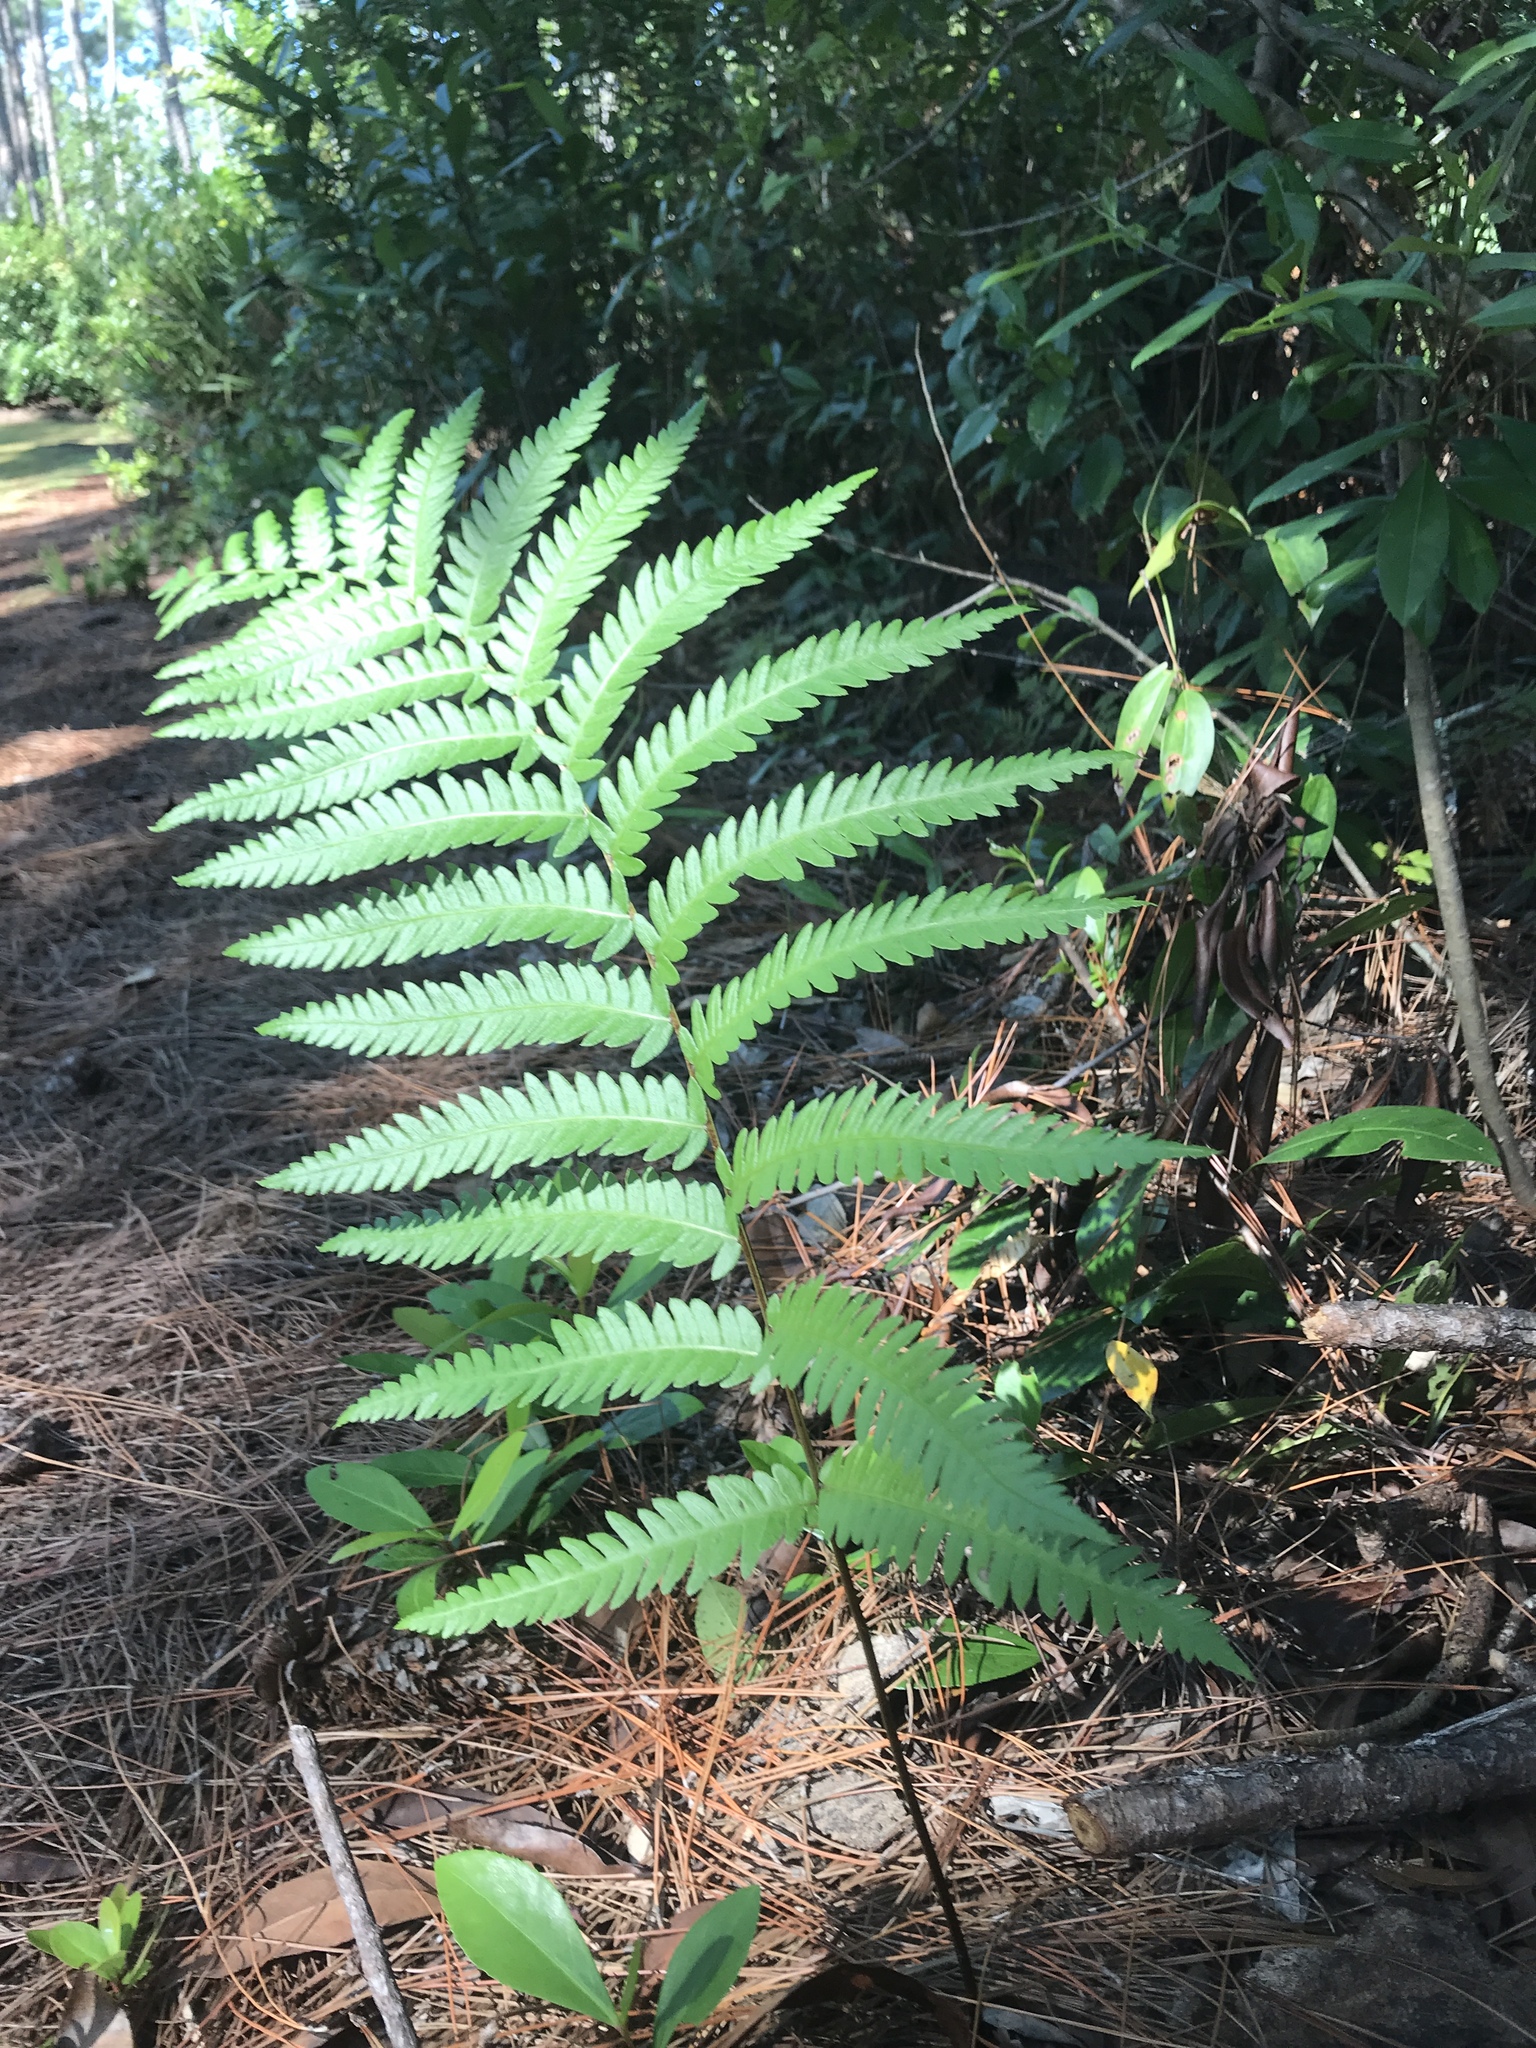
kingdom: Plantae
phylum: Tracheophyta
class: Polypodiopsida
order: Polypodiales
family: Blechnaceae
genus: Anchistea
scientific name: Anchistea virginica
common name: Virginia chain fern
